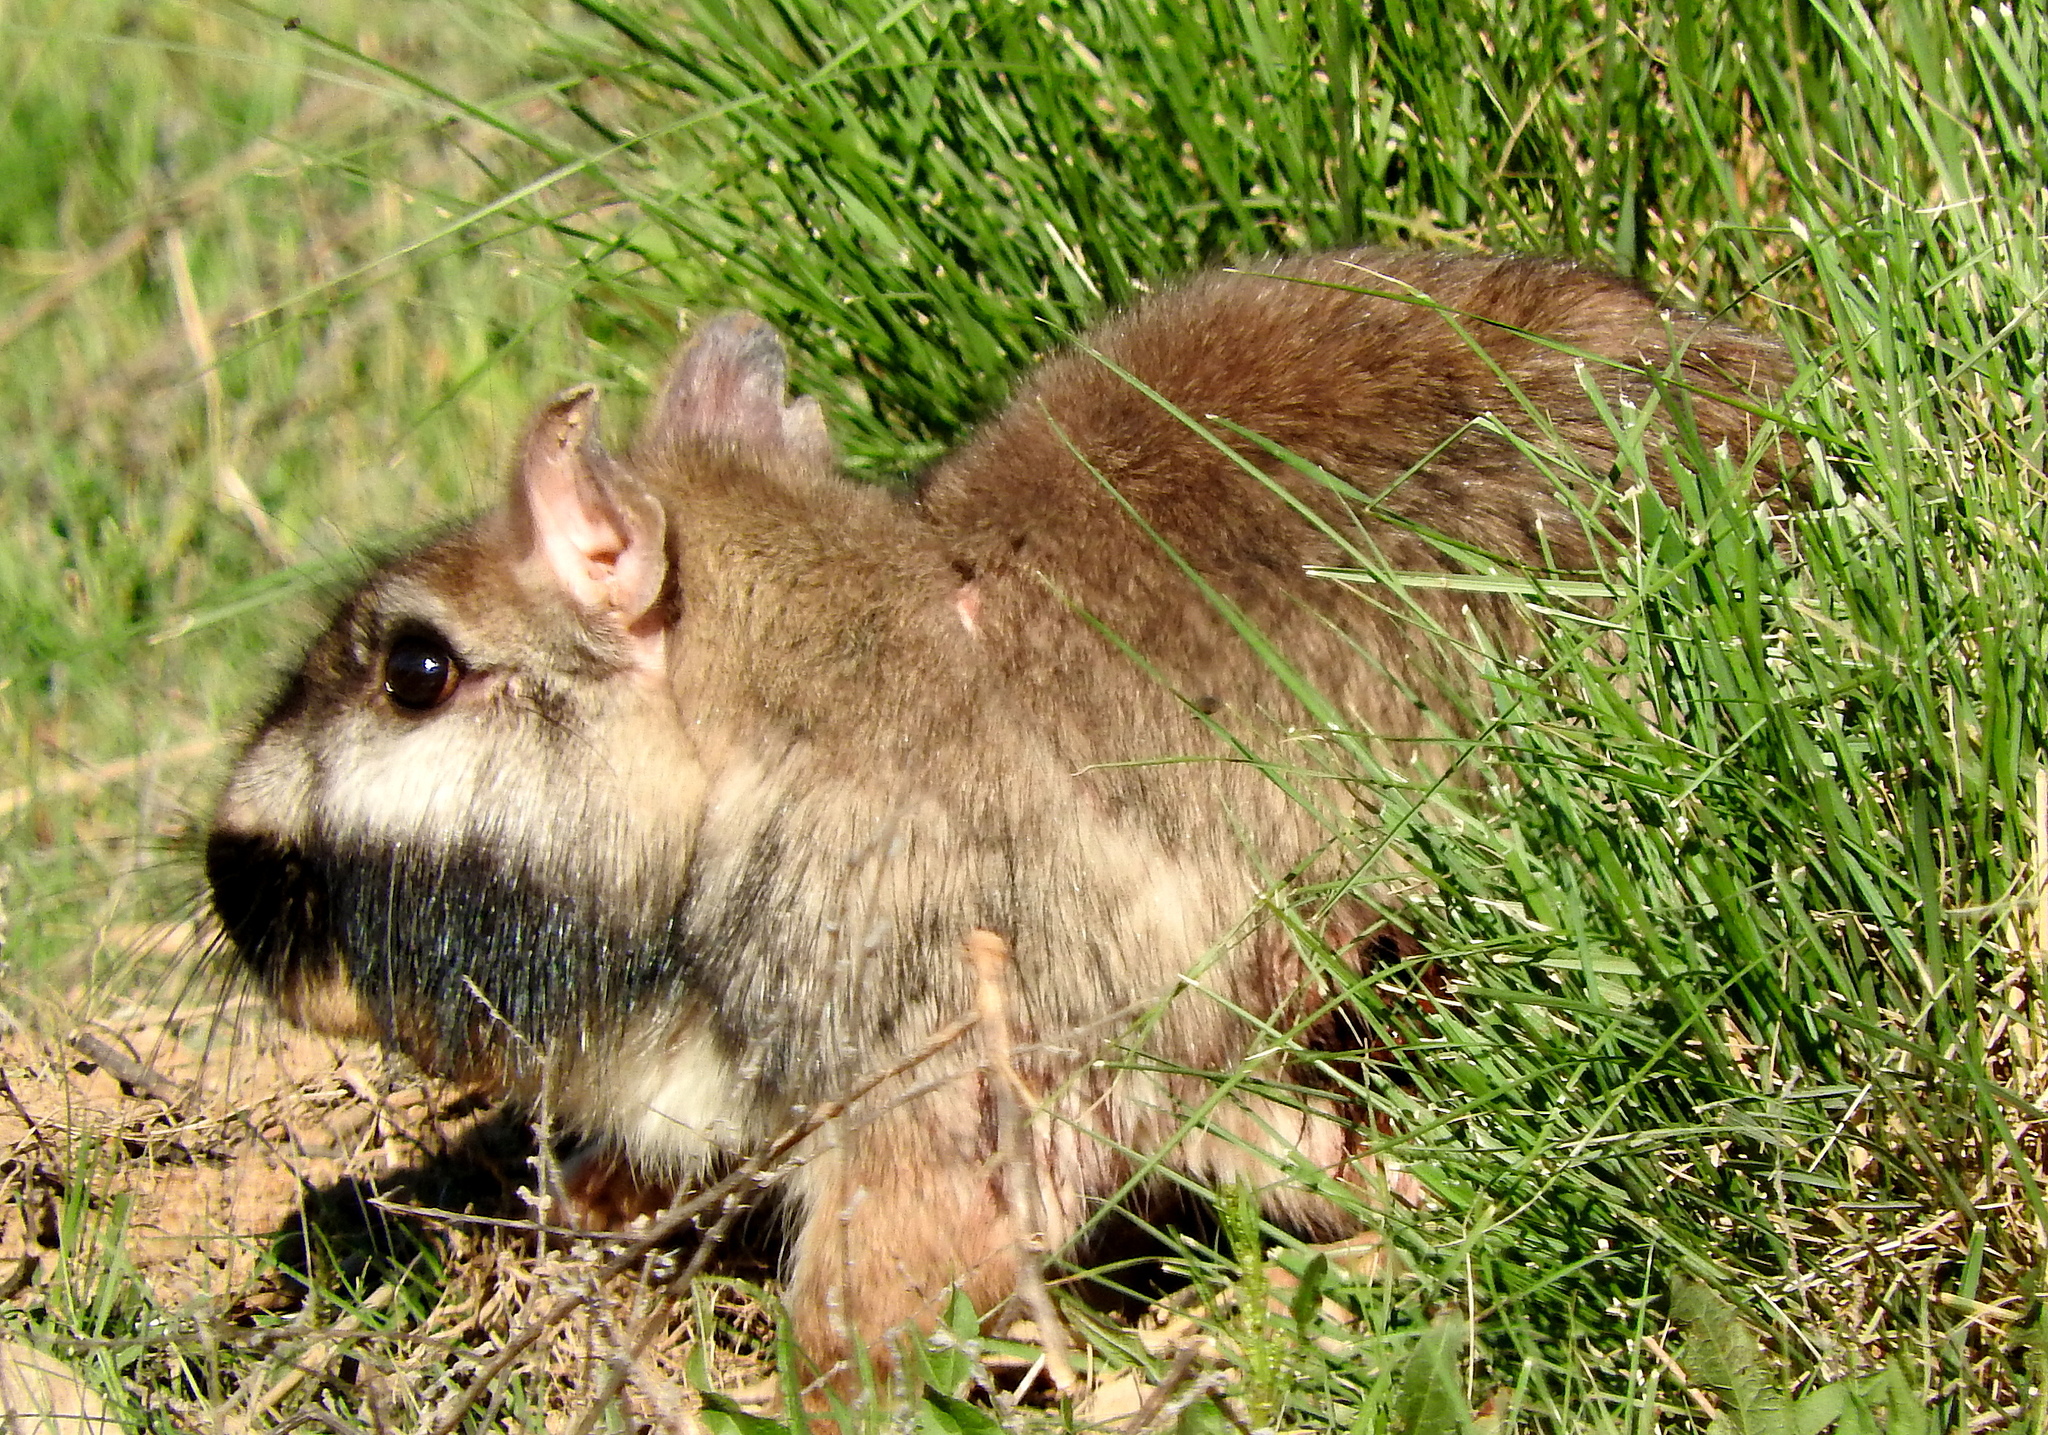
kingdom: Animalia
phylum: Chordata
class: Mammalia
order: Rodentia
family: Chinchillidae
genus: Lagostomus
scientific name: Lagostomus maximus
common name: Plains viscacha
